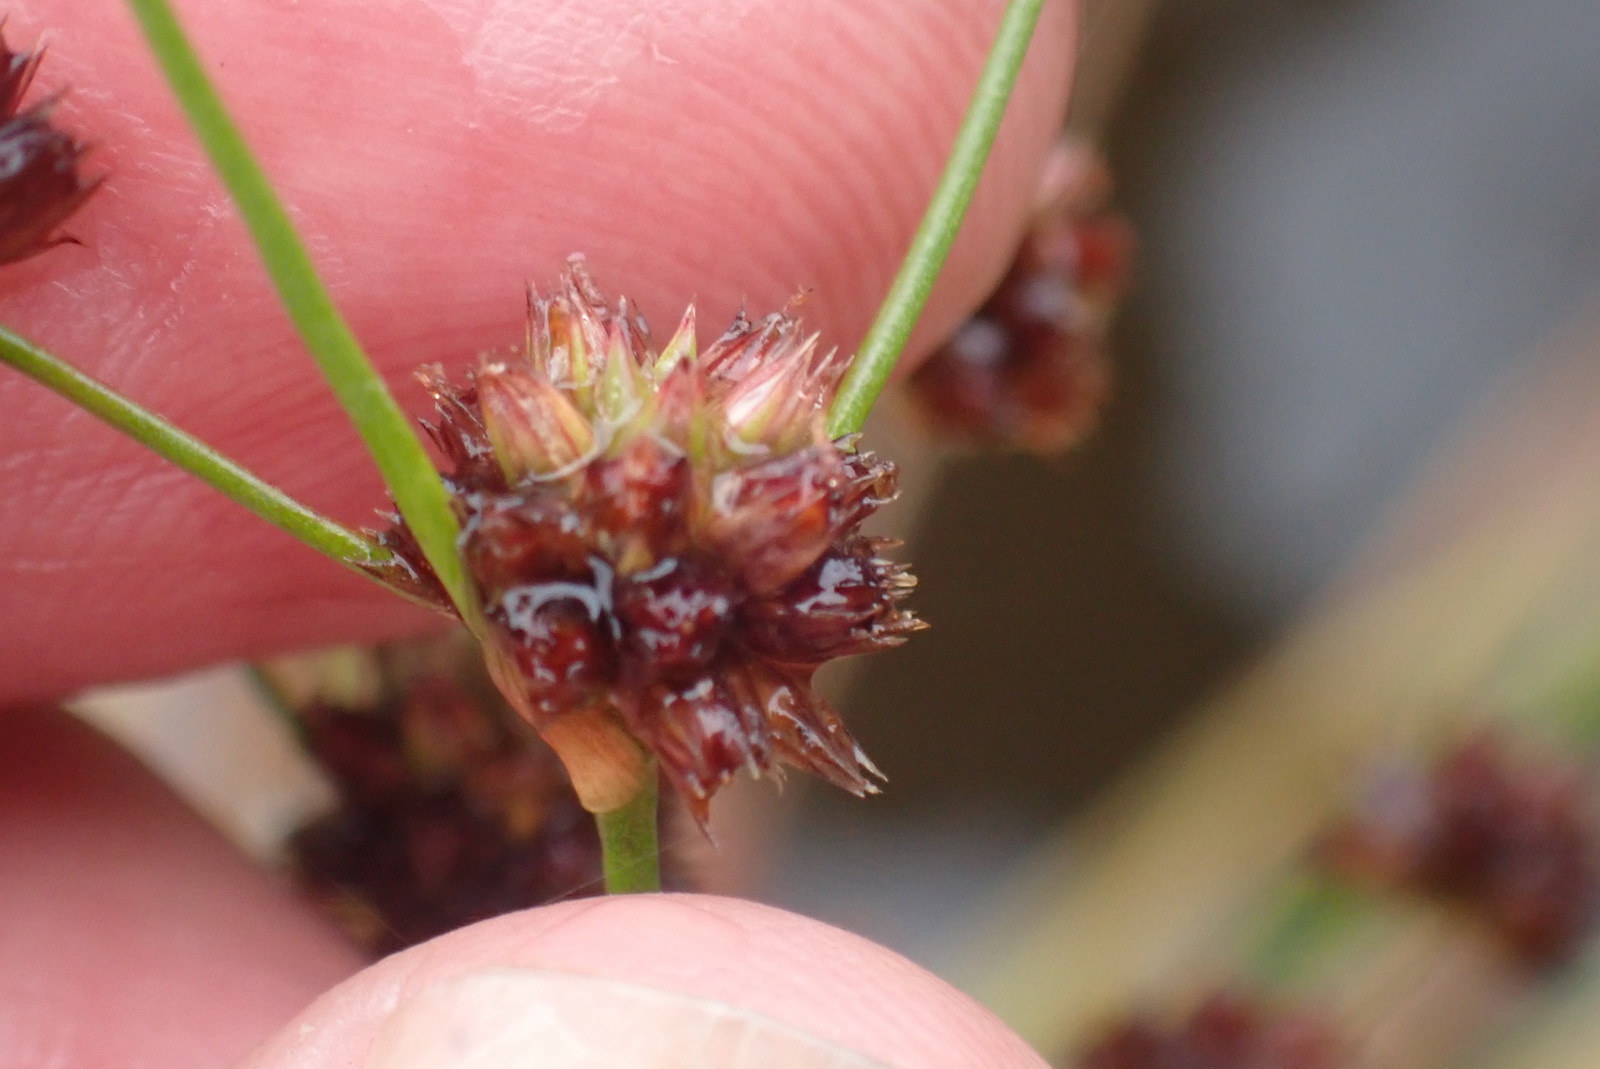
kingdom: Plantae
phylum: Tracheophyta
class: Liliopsida
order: Poales
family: Juncaceae
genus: Juncus
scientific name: Juncus oxycarpus
